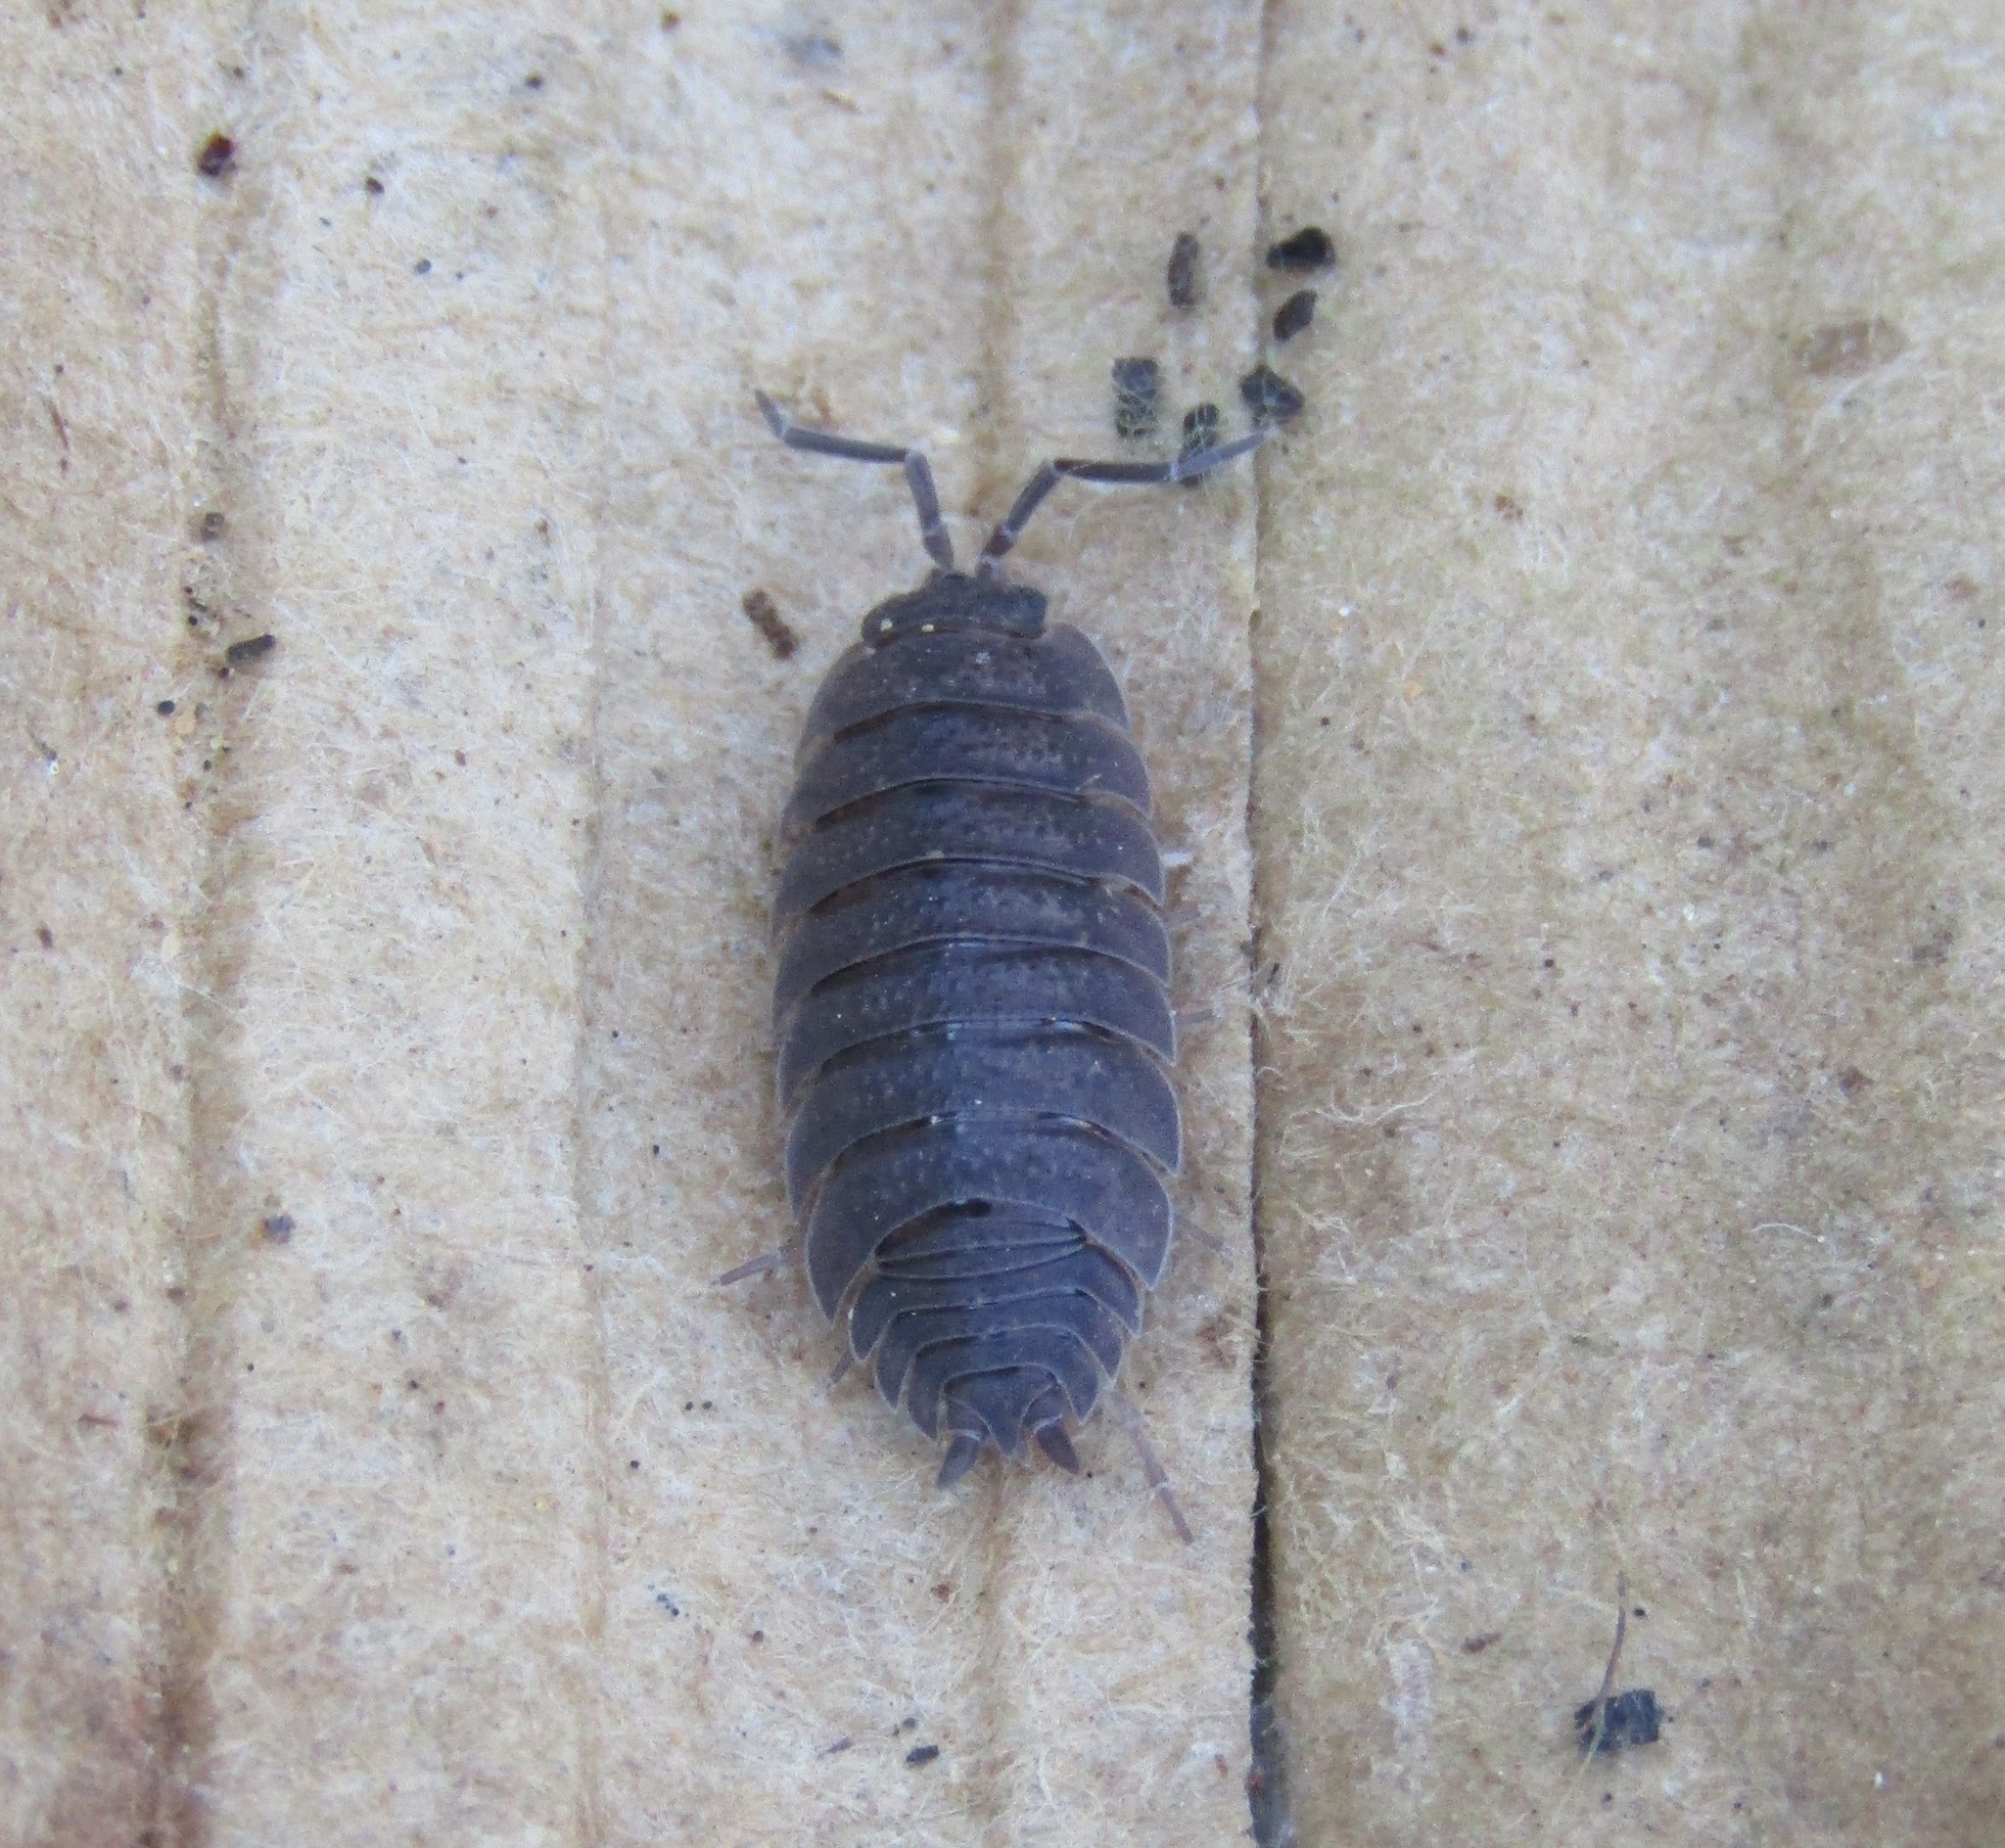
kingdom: Animalia
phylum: Arthropoda
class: Malacostraca
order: Isopoda
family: Porcellionidae
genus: Porcellio
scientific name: Porcellio scaber
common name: Common rough woodlouse
